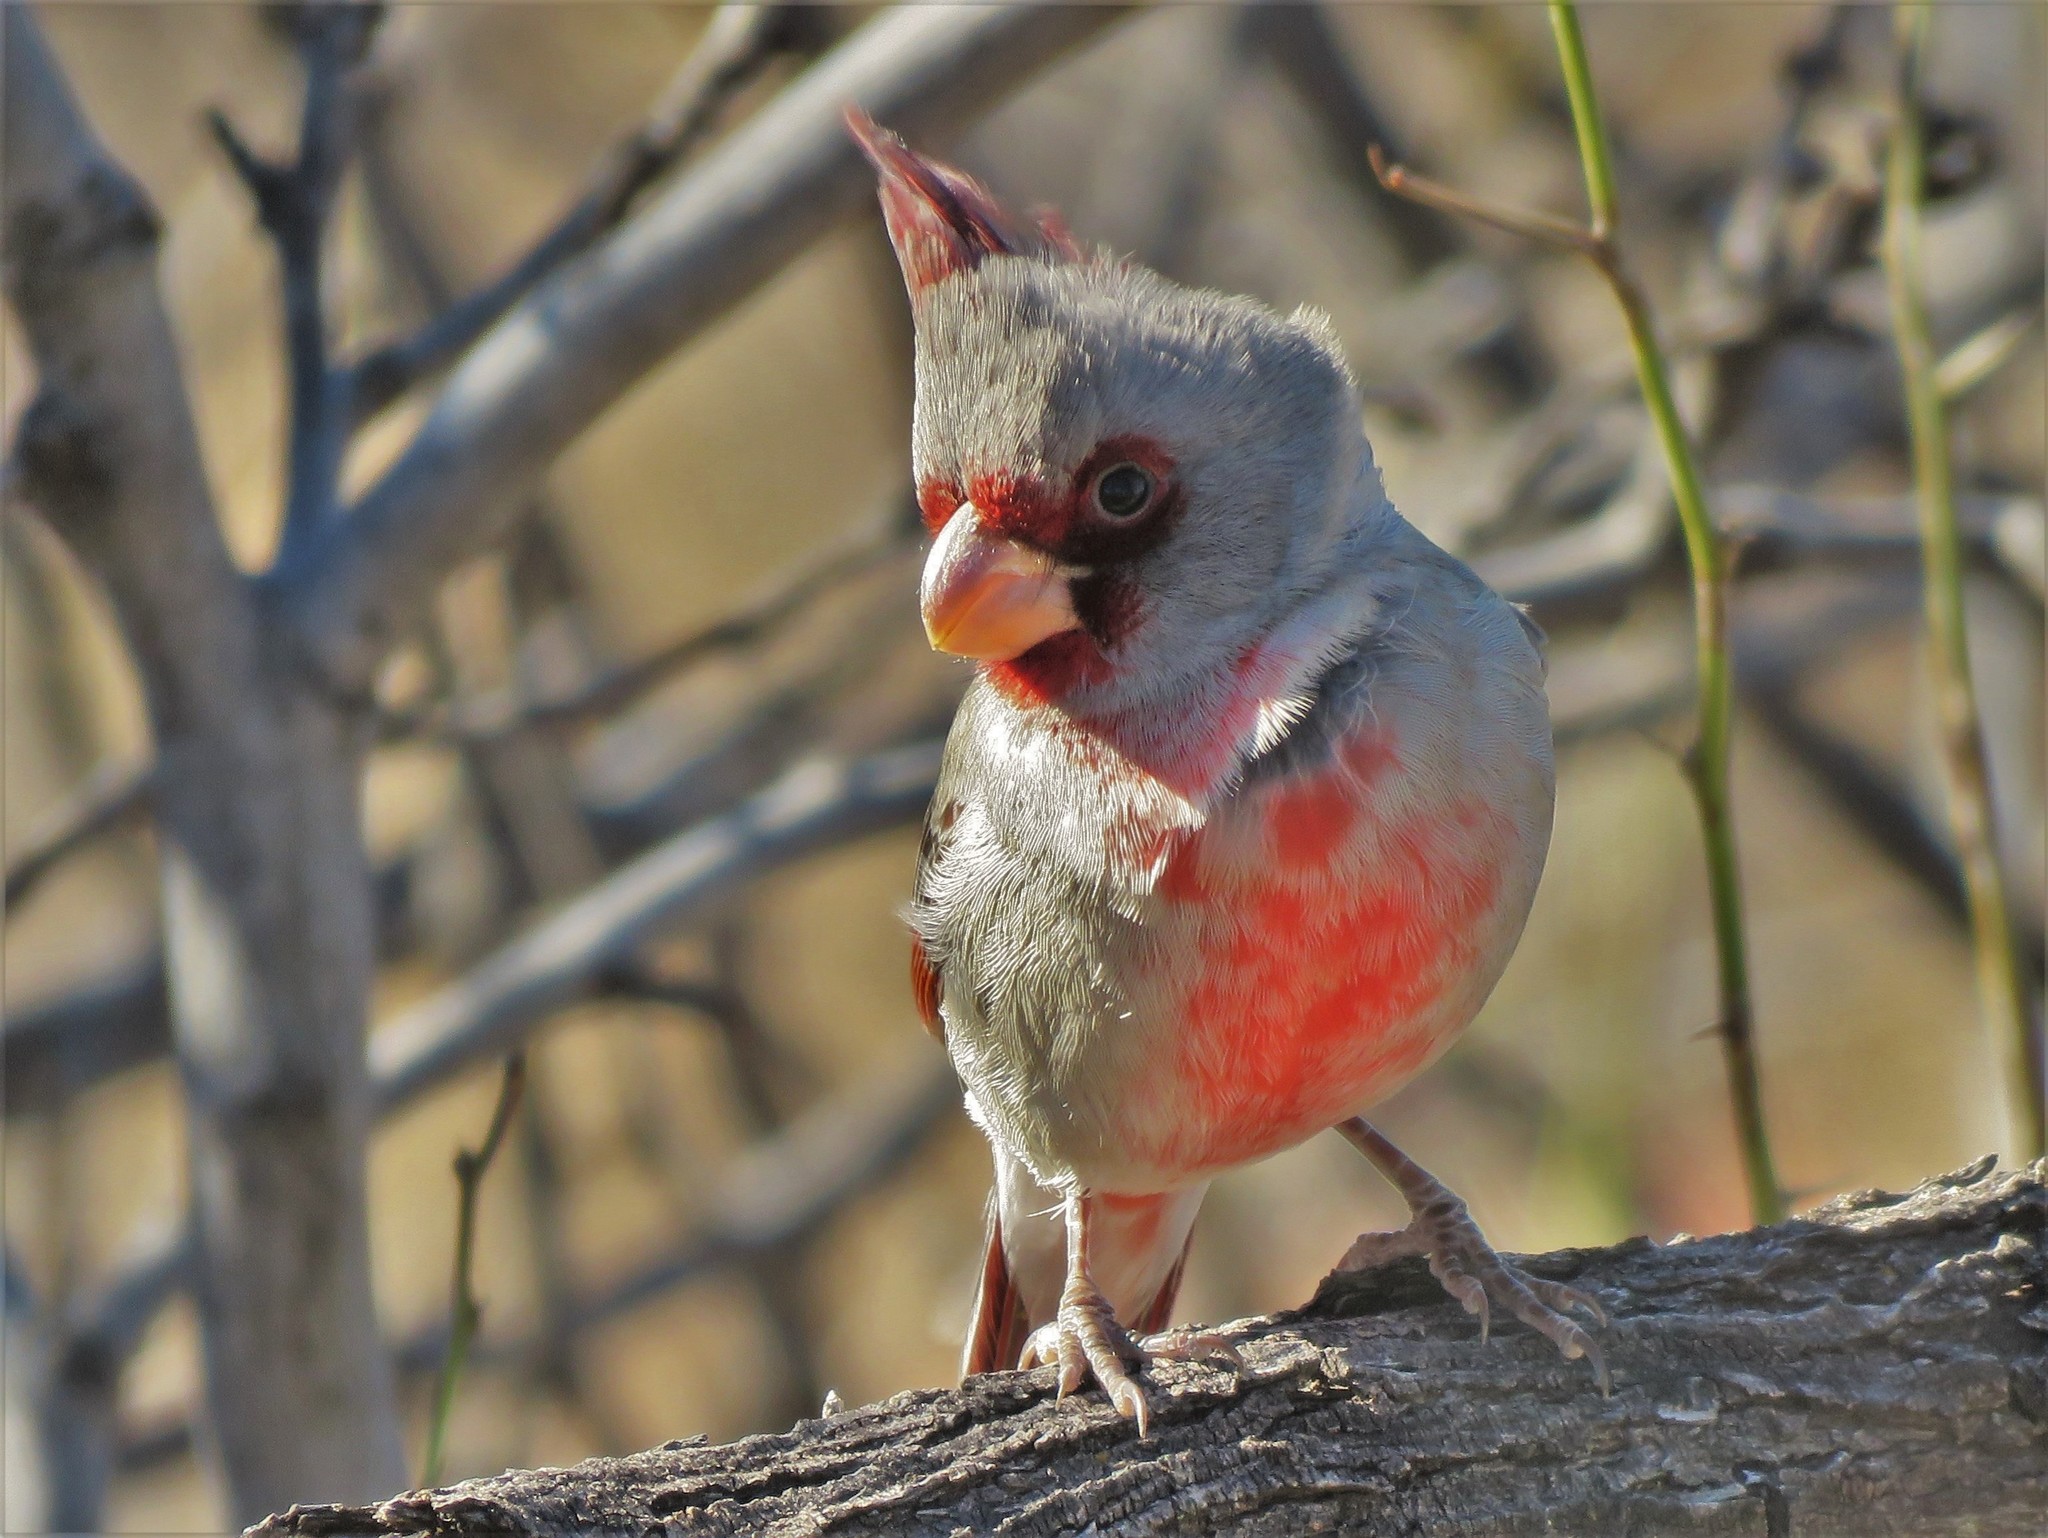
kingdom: Animalia
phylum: Chordata
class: Aves
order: Passeriformes
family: Cardinalidae
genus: Cardinalis
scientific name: Cardinalis sinuatus
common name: Pyrrhuloxia
